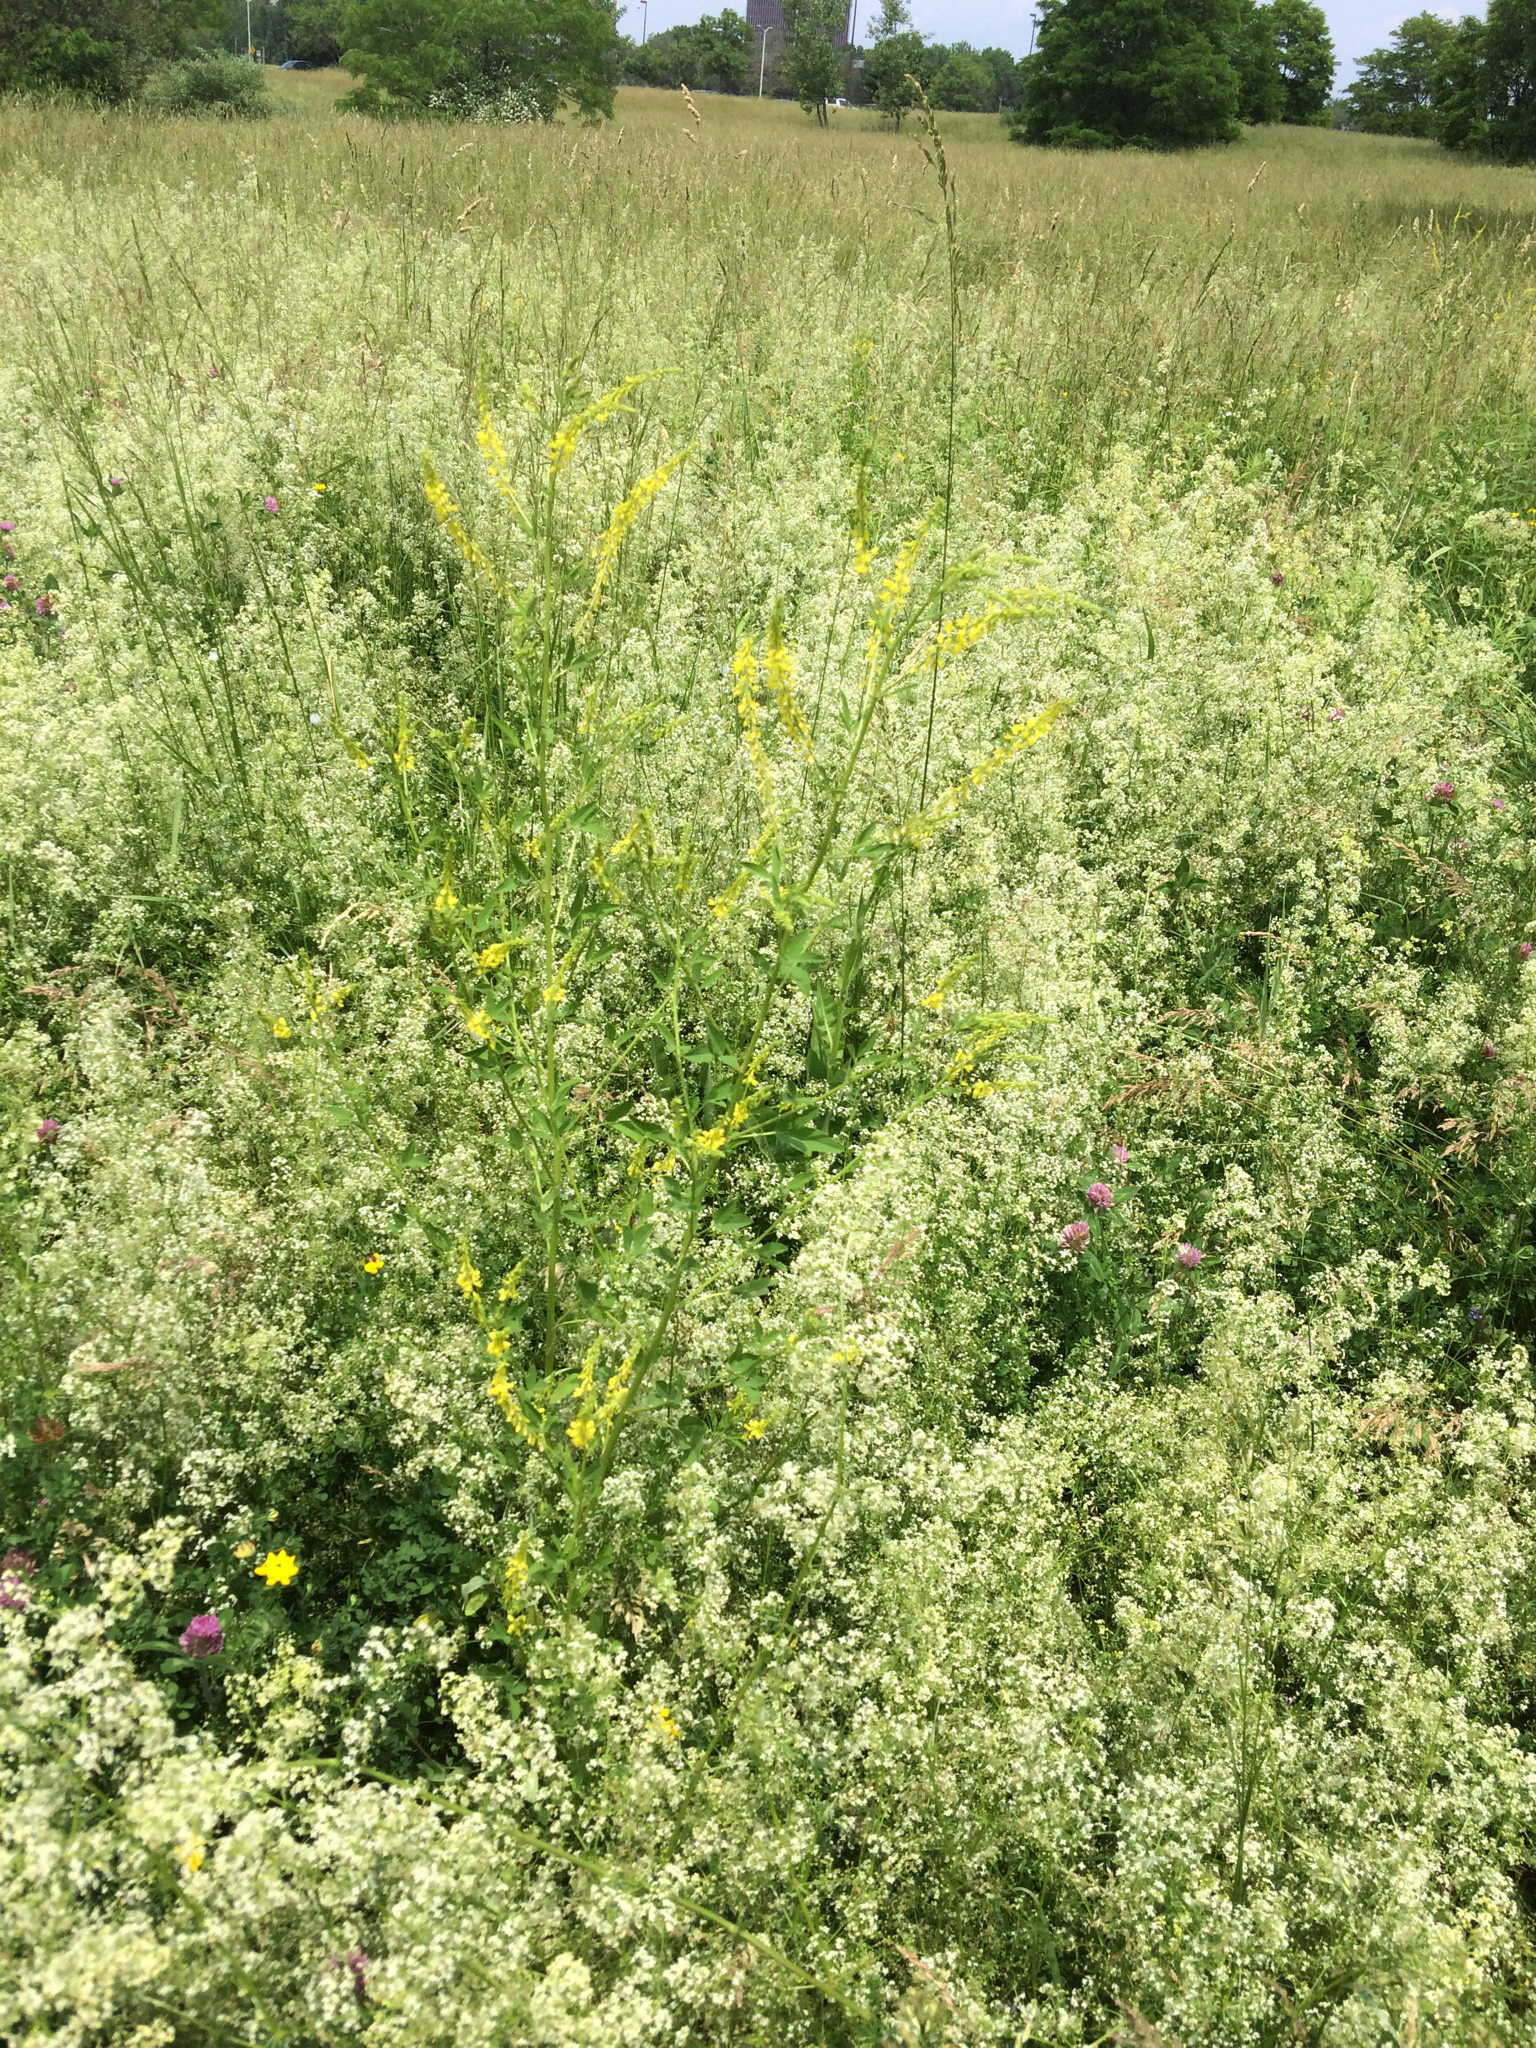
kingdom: Plantae
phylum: Tracheophyta
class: Magnoliopsida
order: Fabales
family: Fabaceae
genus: Melilotus
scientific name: Melilotus officinalis
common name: Sweetclover
